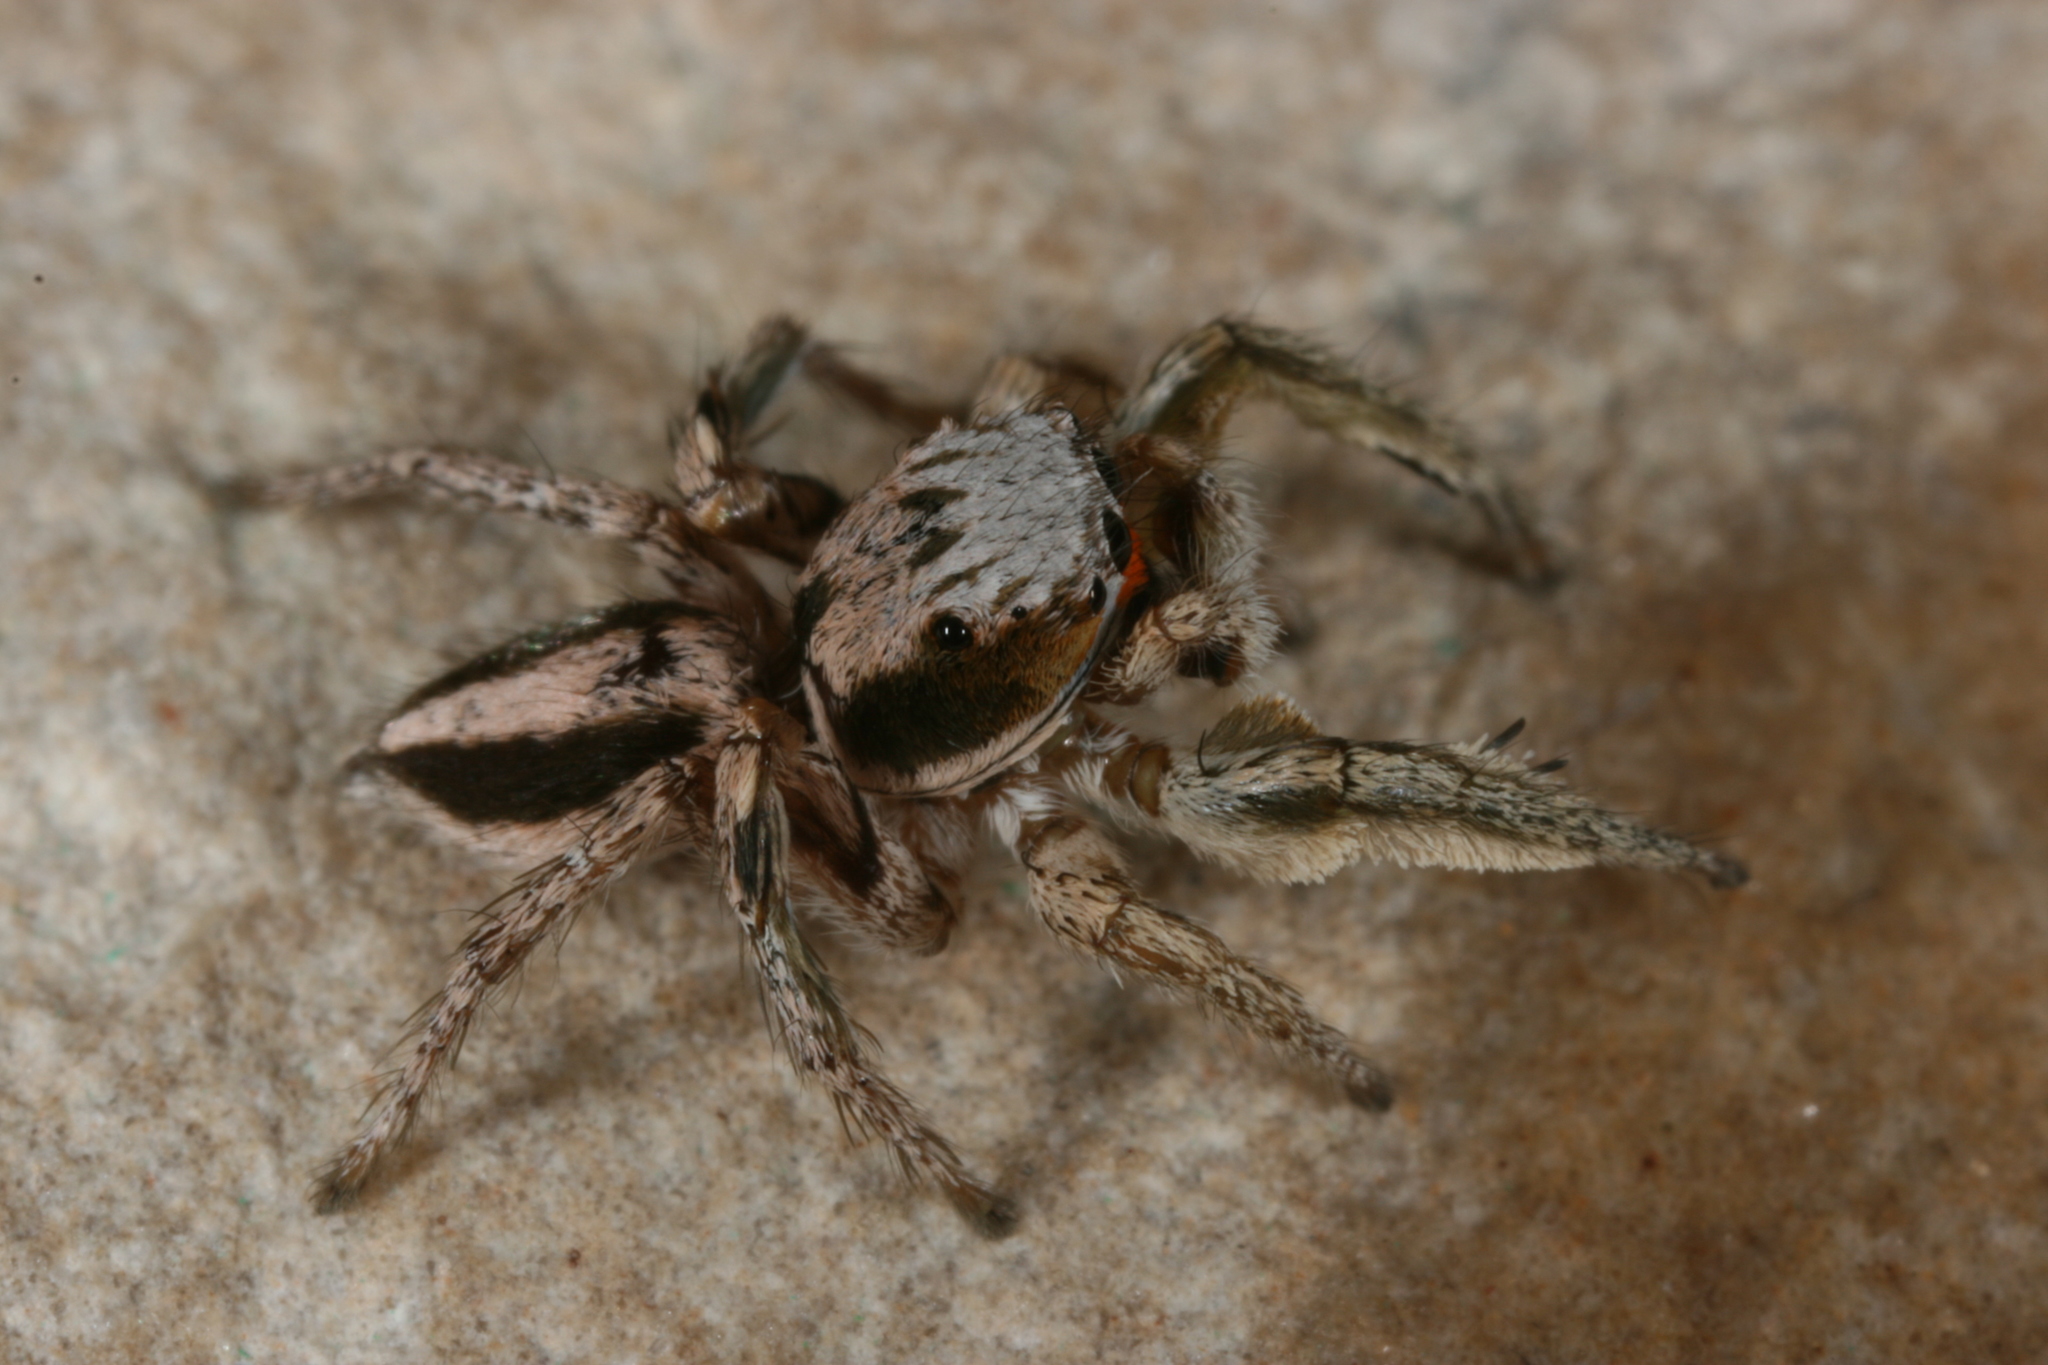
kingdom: Animalia
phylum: Arthropoda
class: Arachnida
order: Araneae
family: Salticidae
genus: Habronattus
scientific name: Habronattus virgulatus
